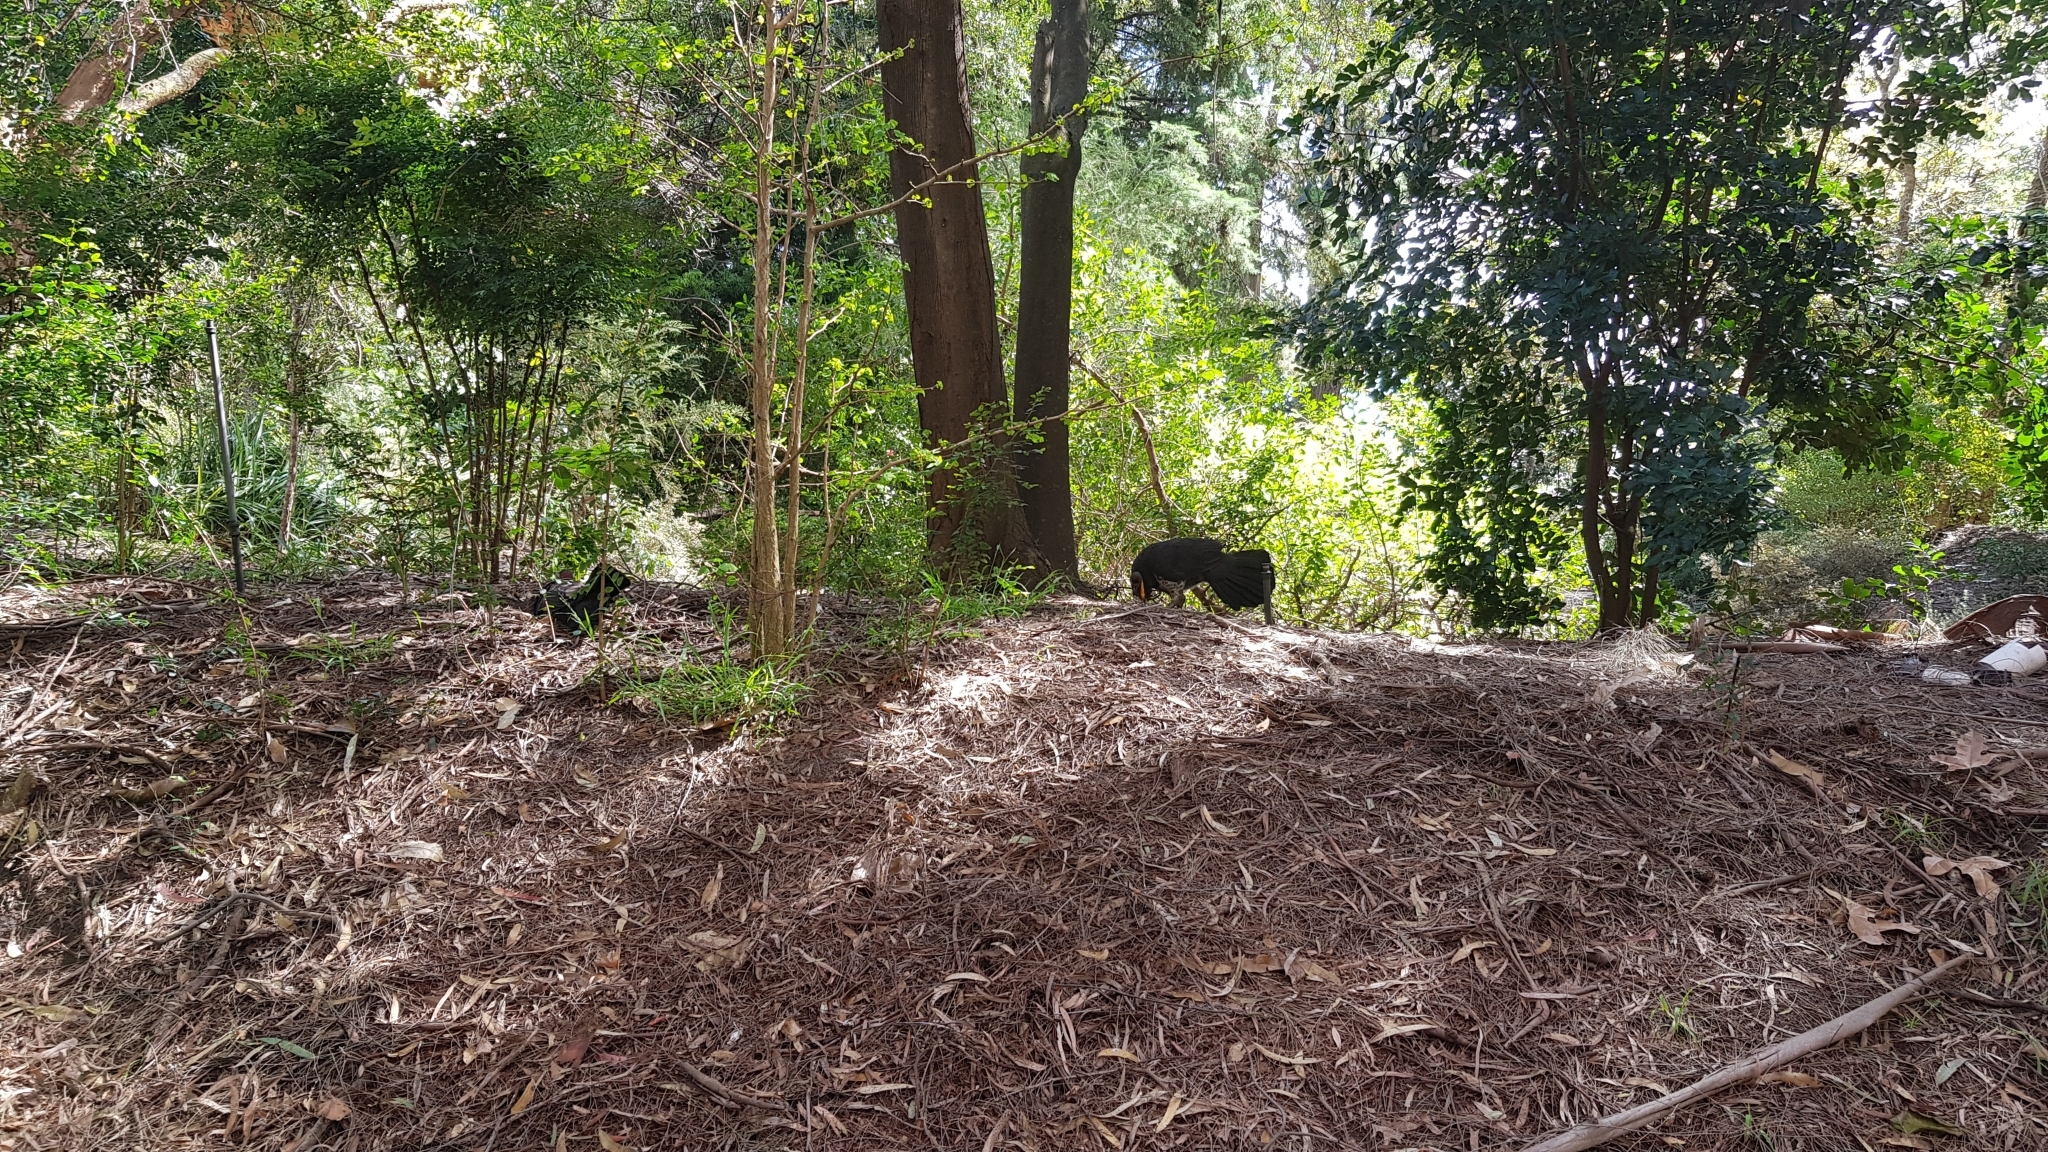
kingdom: Animalia
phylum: Chordata
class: Aves
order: Galliformes
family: Megapodiidae
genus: Alectura
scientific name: Alectura lathami
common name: Australian brushturkey
